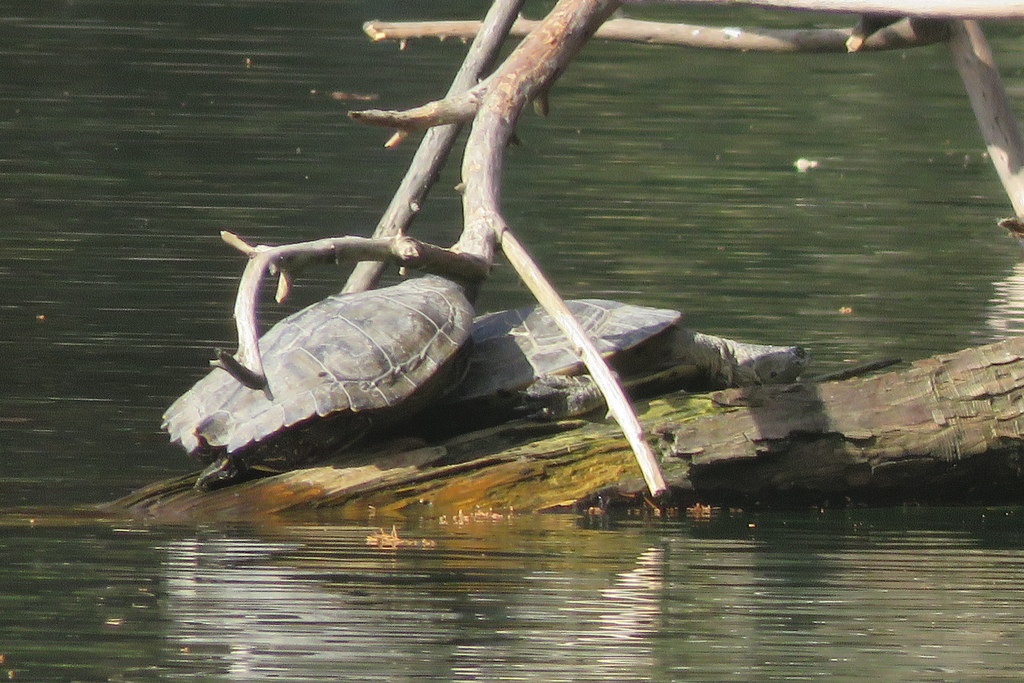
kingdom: Animalia
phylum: Chordata
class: Testudines
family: Chelidae
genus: Phrynops
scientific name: Phrynops hilarii
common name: Side-necked turtle of saint hillaire
